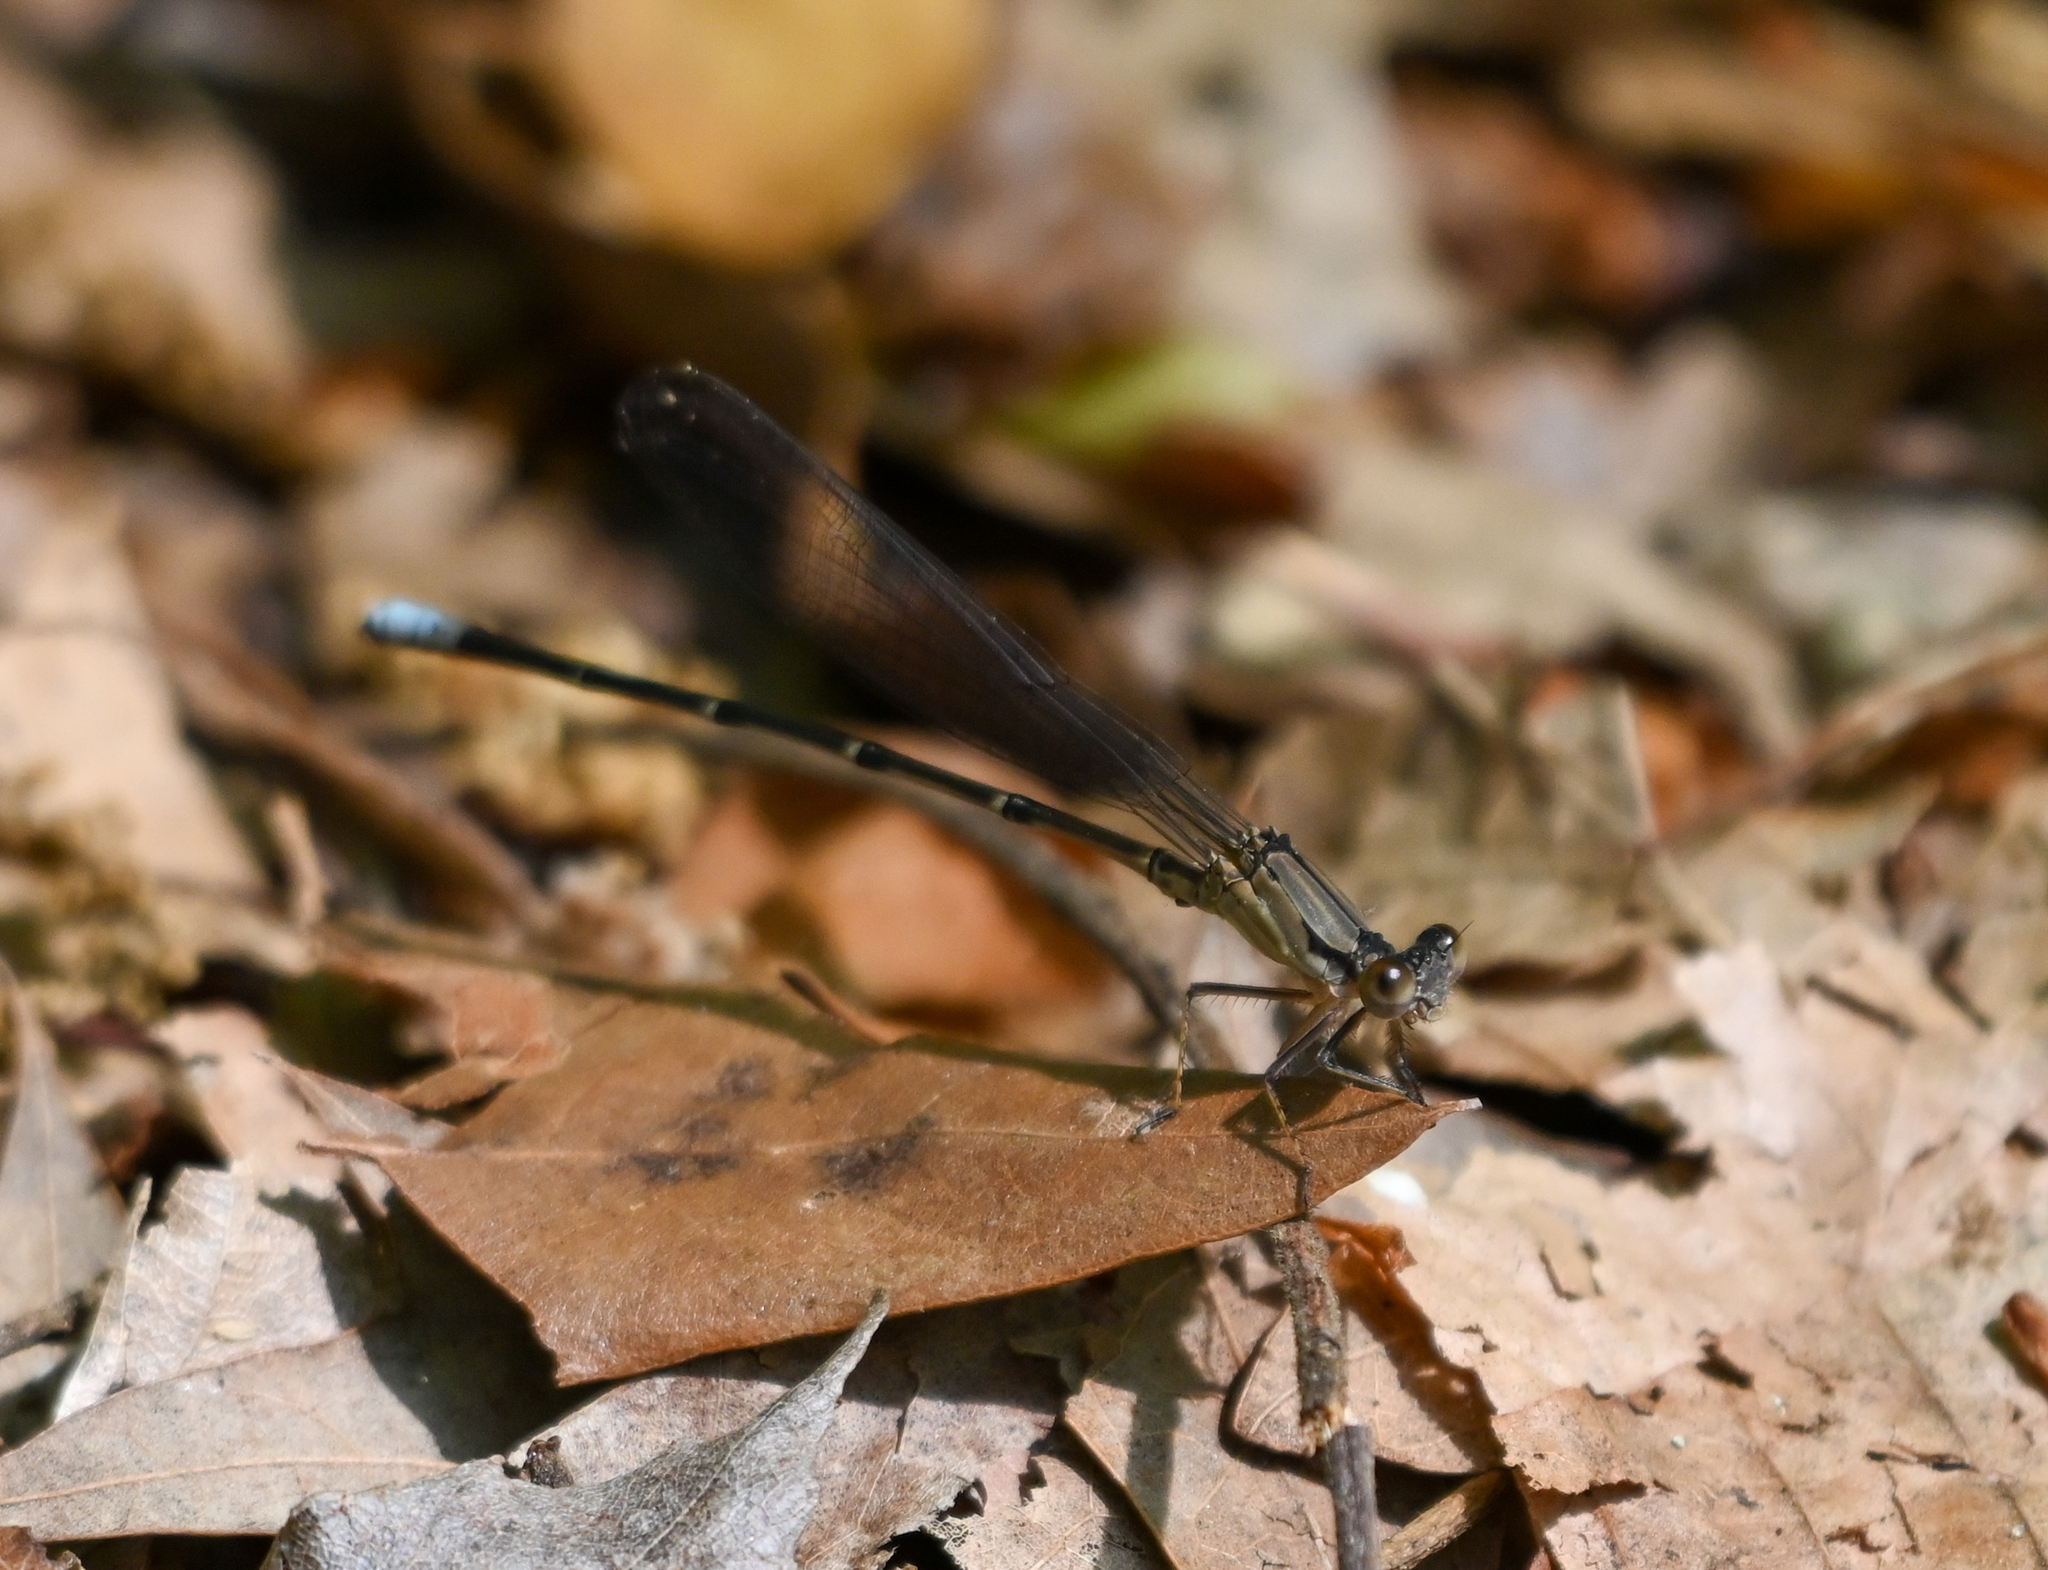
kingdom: Animalia
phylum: Arthropoda
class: Insecta
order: Odonata
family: Coenagrionidae
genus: Argia
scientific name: Argia apicalis
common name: Blue-fronted dancer
